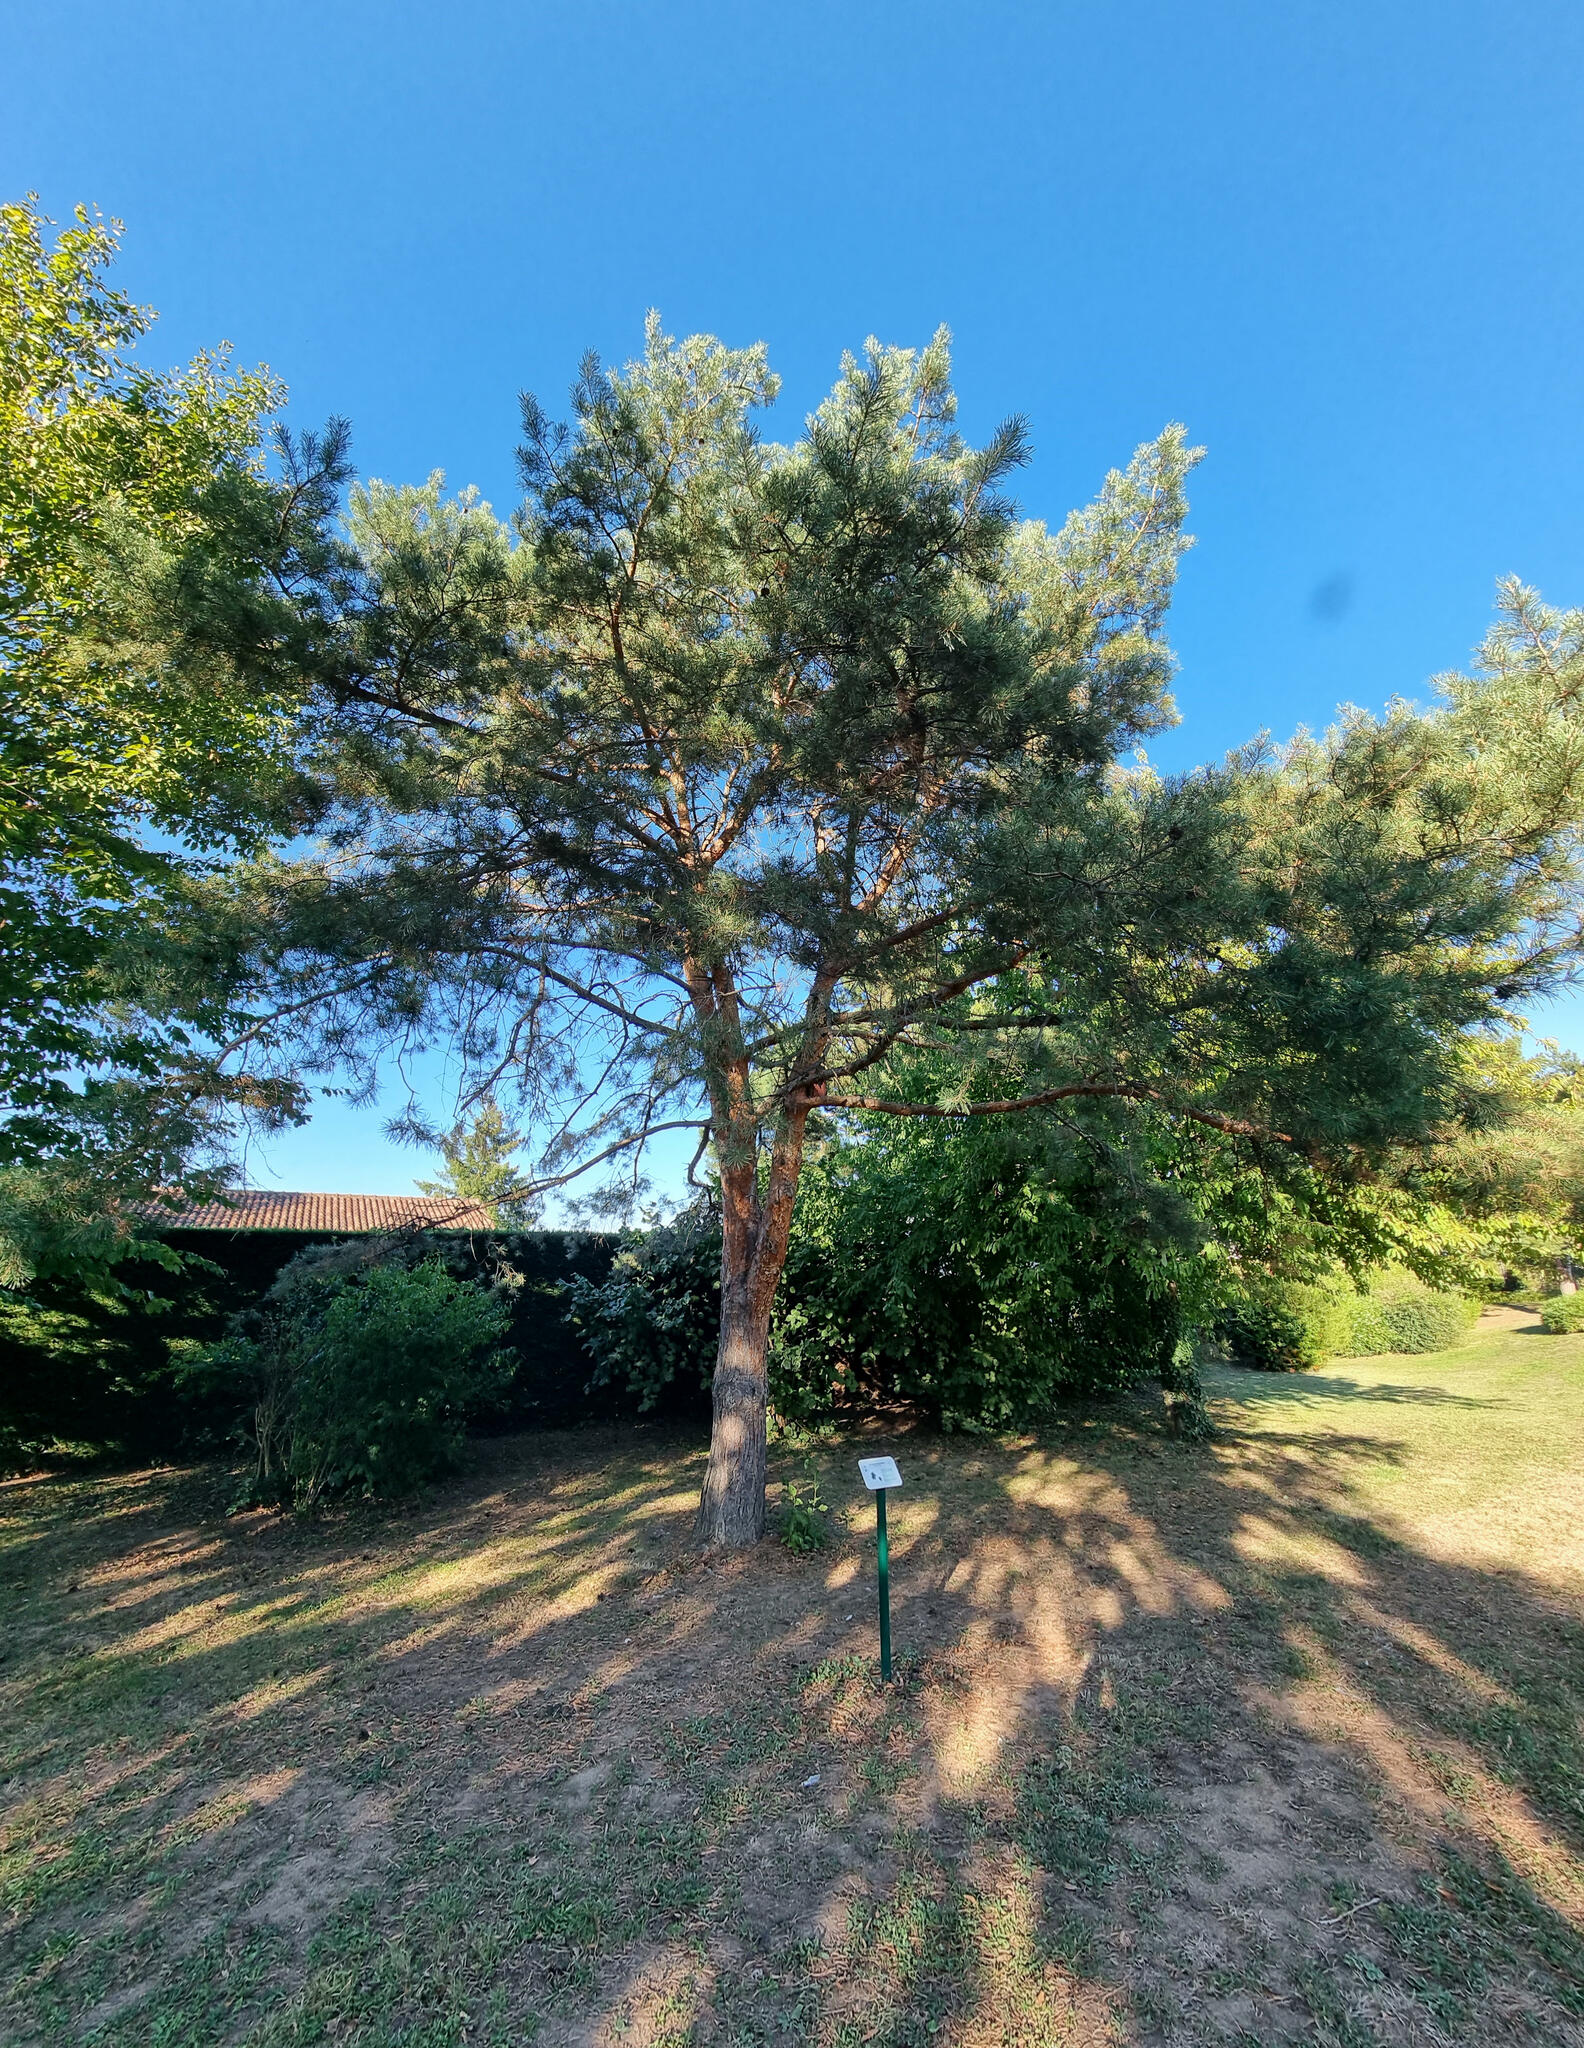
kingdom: Plantae
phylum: Tracheophyta
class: Pinopsida
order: Pinales
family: Pinaceae
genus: Pinus
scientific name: Pinus sylvestris
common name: Scots pine
